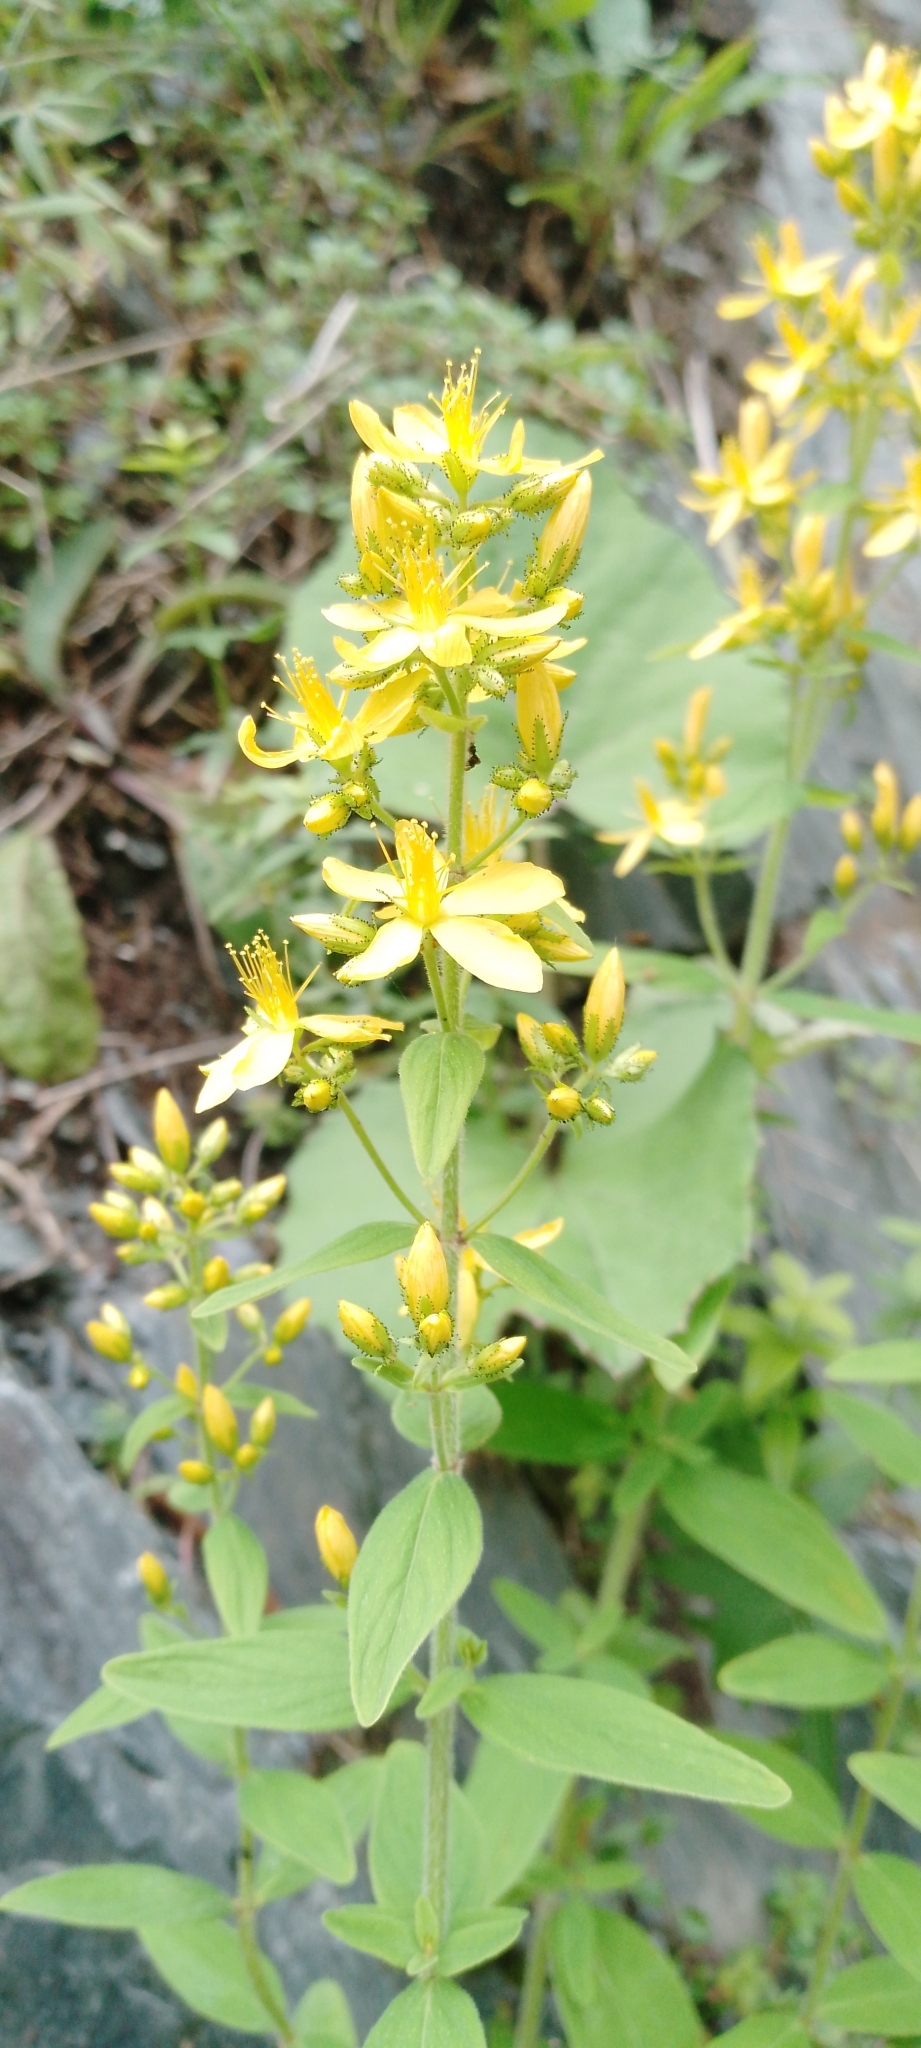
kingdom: Plantae
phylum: Tracheophyta
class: Magnoliopsida
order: Malpighiales
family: Hypericaceae
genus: Hypericum
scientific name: Hypericum hirsutum
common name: Hairy st. john's-wort
